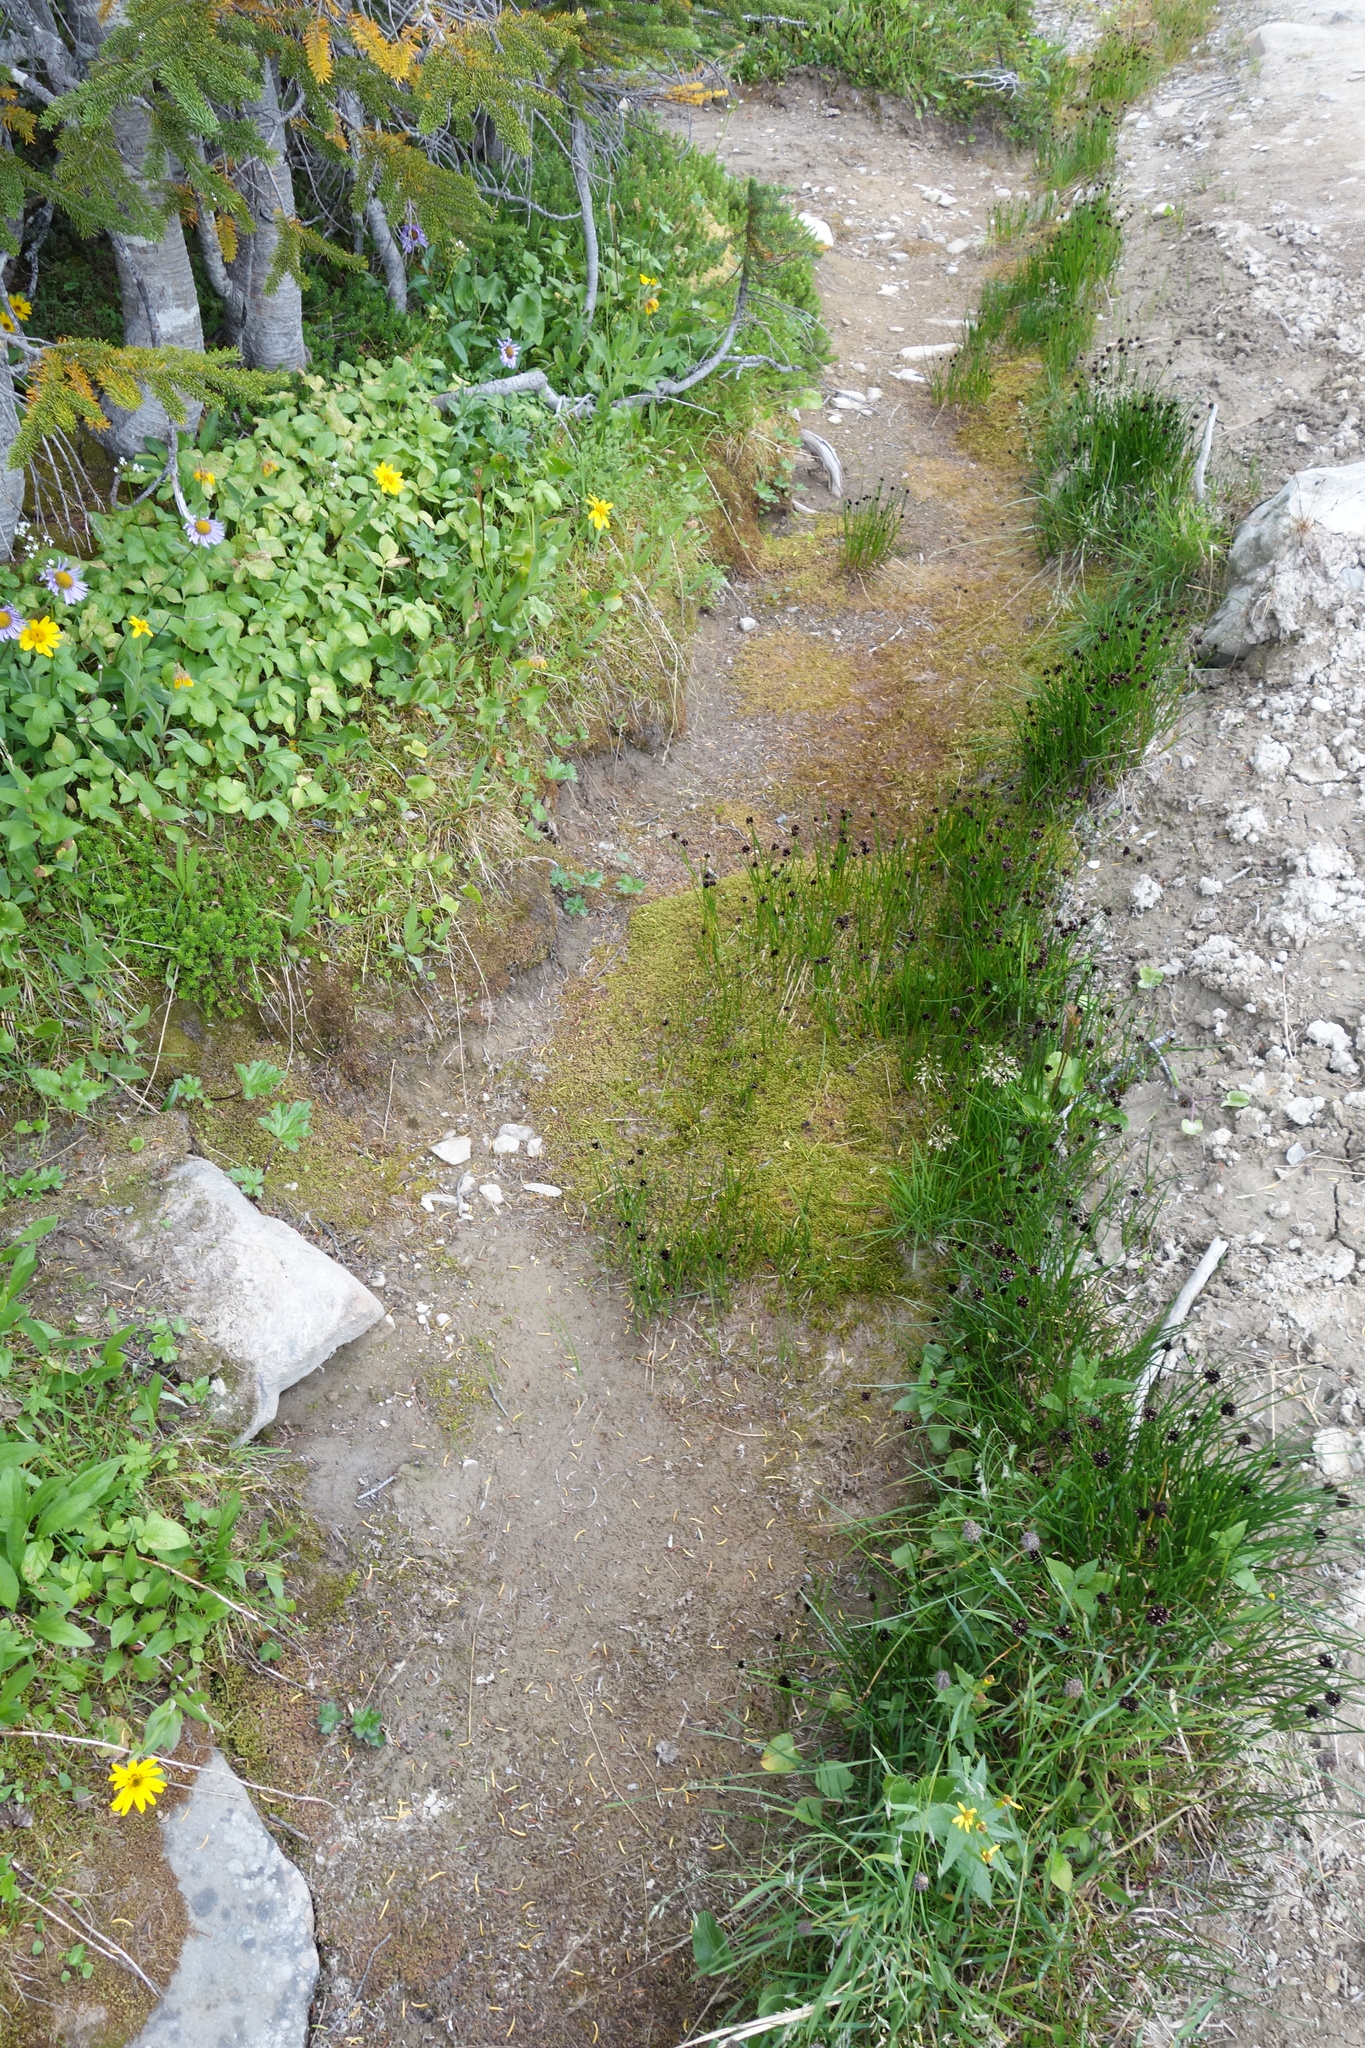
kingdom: Plantae
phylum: Tracheophyta
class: Liliopsida
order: Poales
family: Juncaceae
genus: Juncus
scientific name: Juncus mertensianus
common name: Merten's rush
